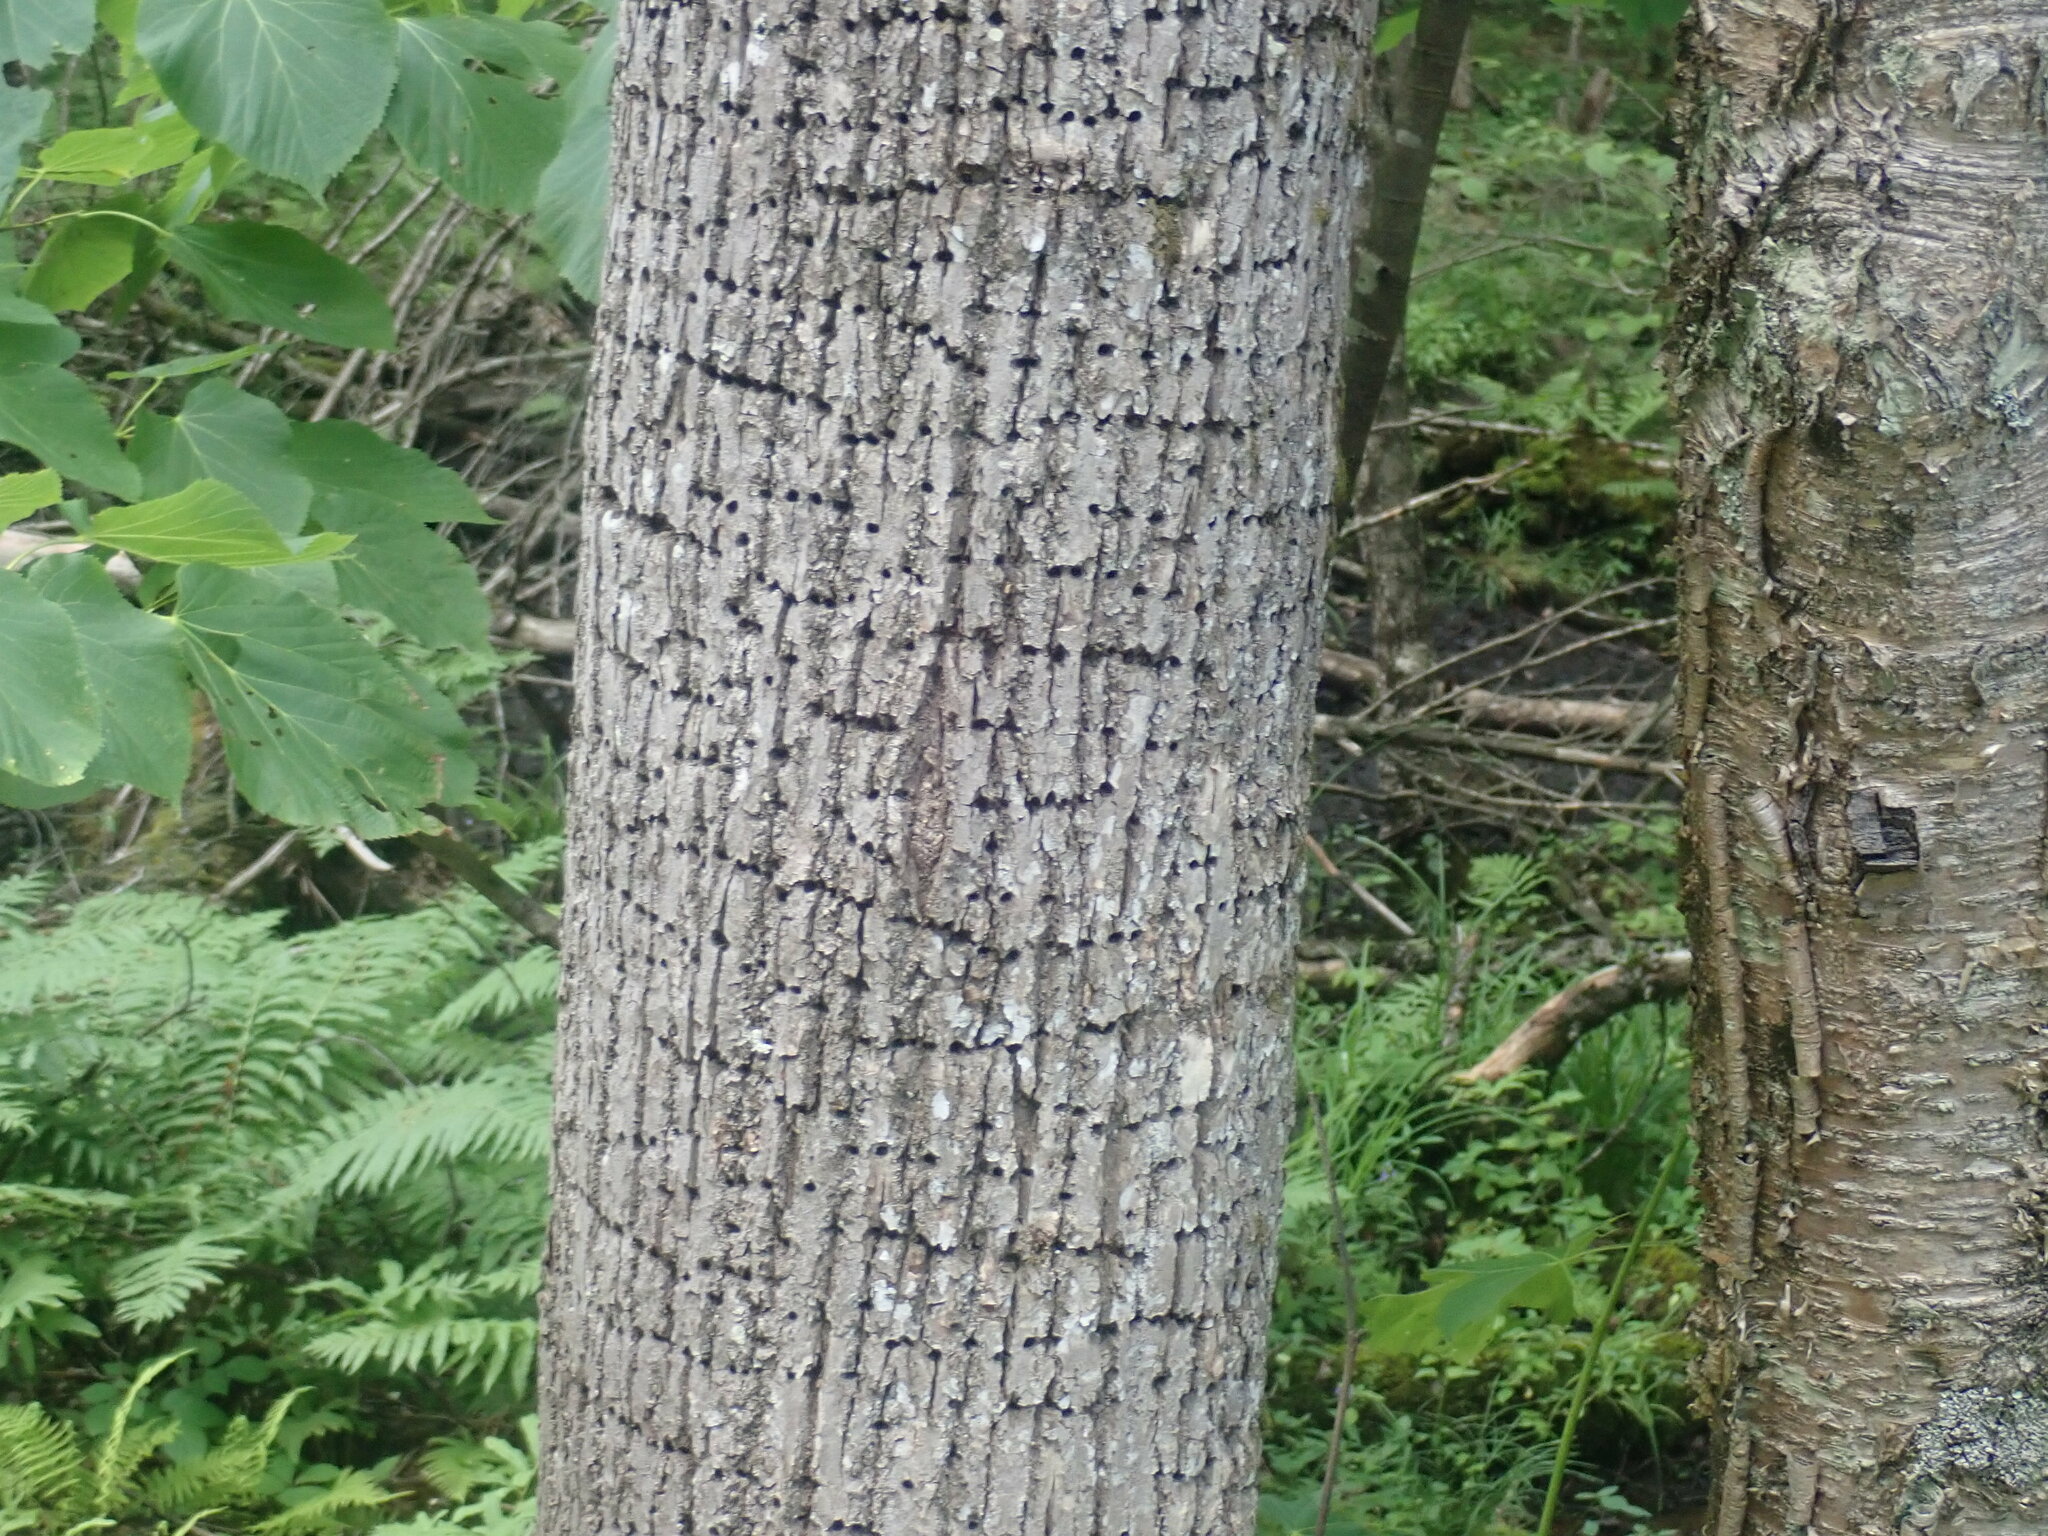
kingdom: Animalia
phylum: Chordata
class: Aves
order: Piciformes
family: Picidae
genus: Sphyrapicus
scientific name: Sphyrapicus varius
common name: Yellow-bellied sapsucker
